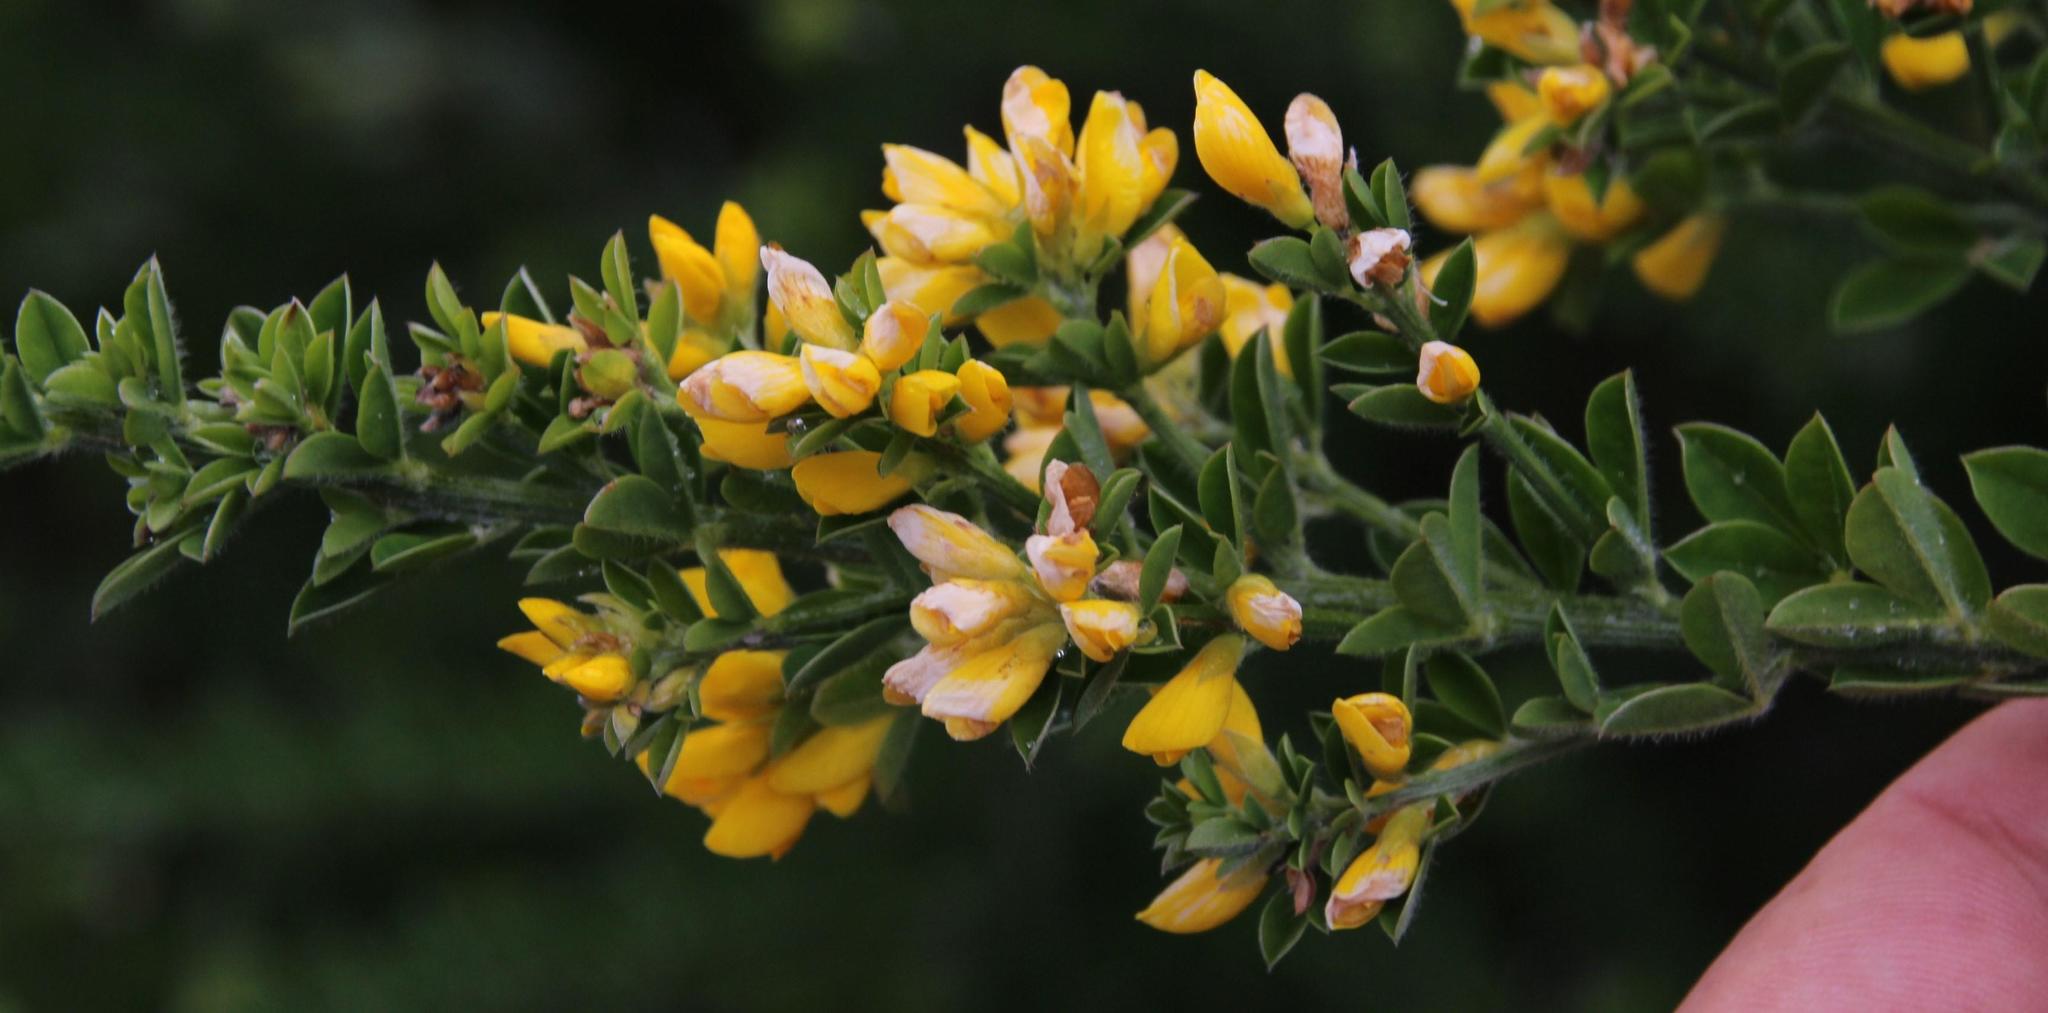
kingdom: Plantae
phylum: Tracheophyta
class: Magnoliopsida
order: Fabales
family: Fabaceae
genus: Genista
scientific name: Genista monspessulana
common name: Montpellier broom
